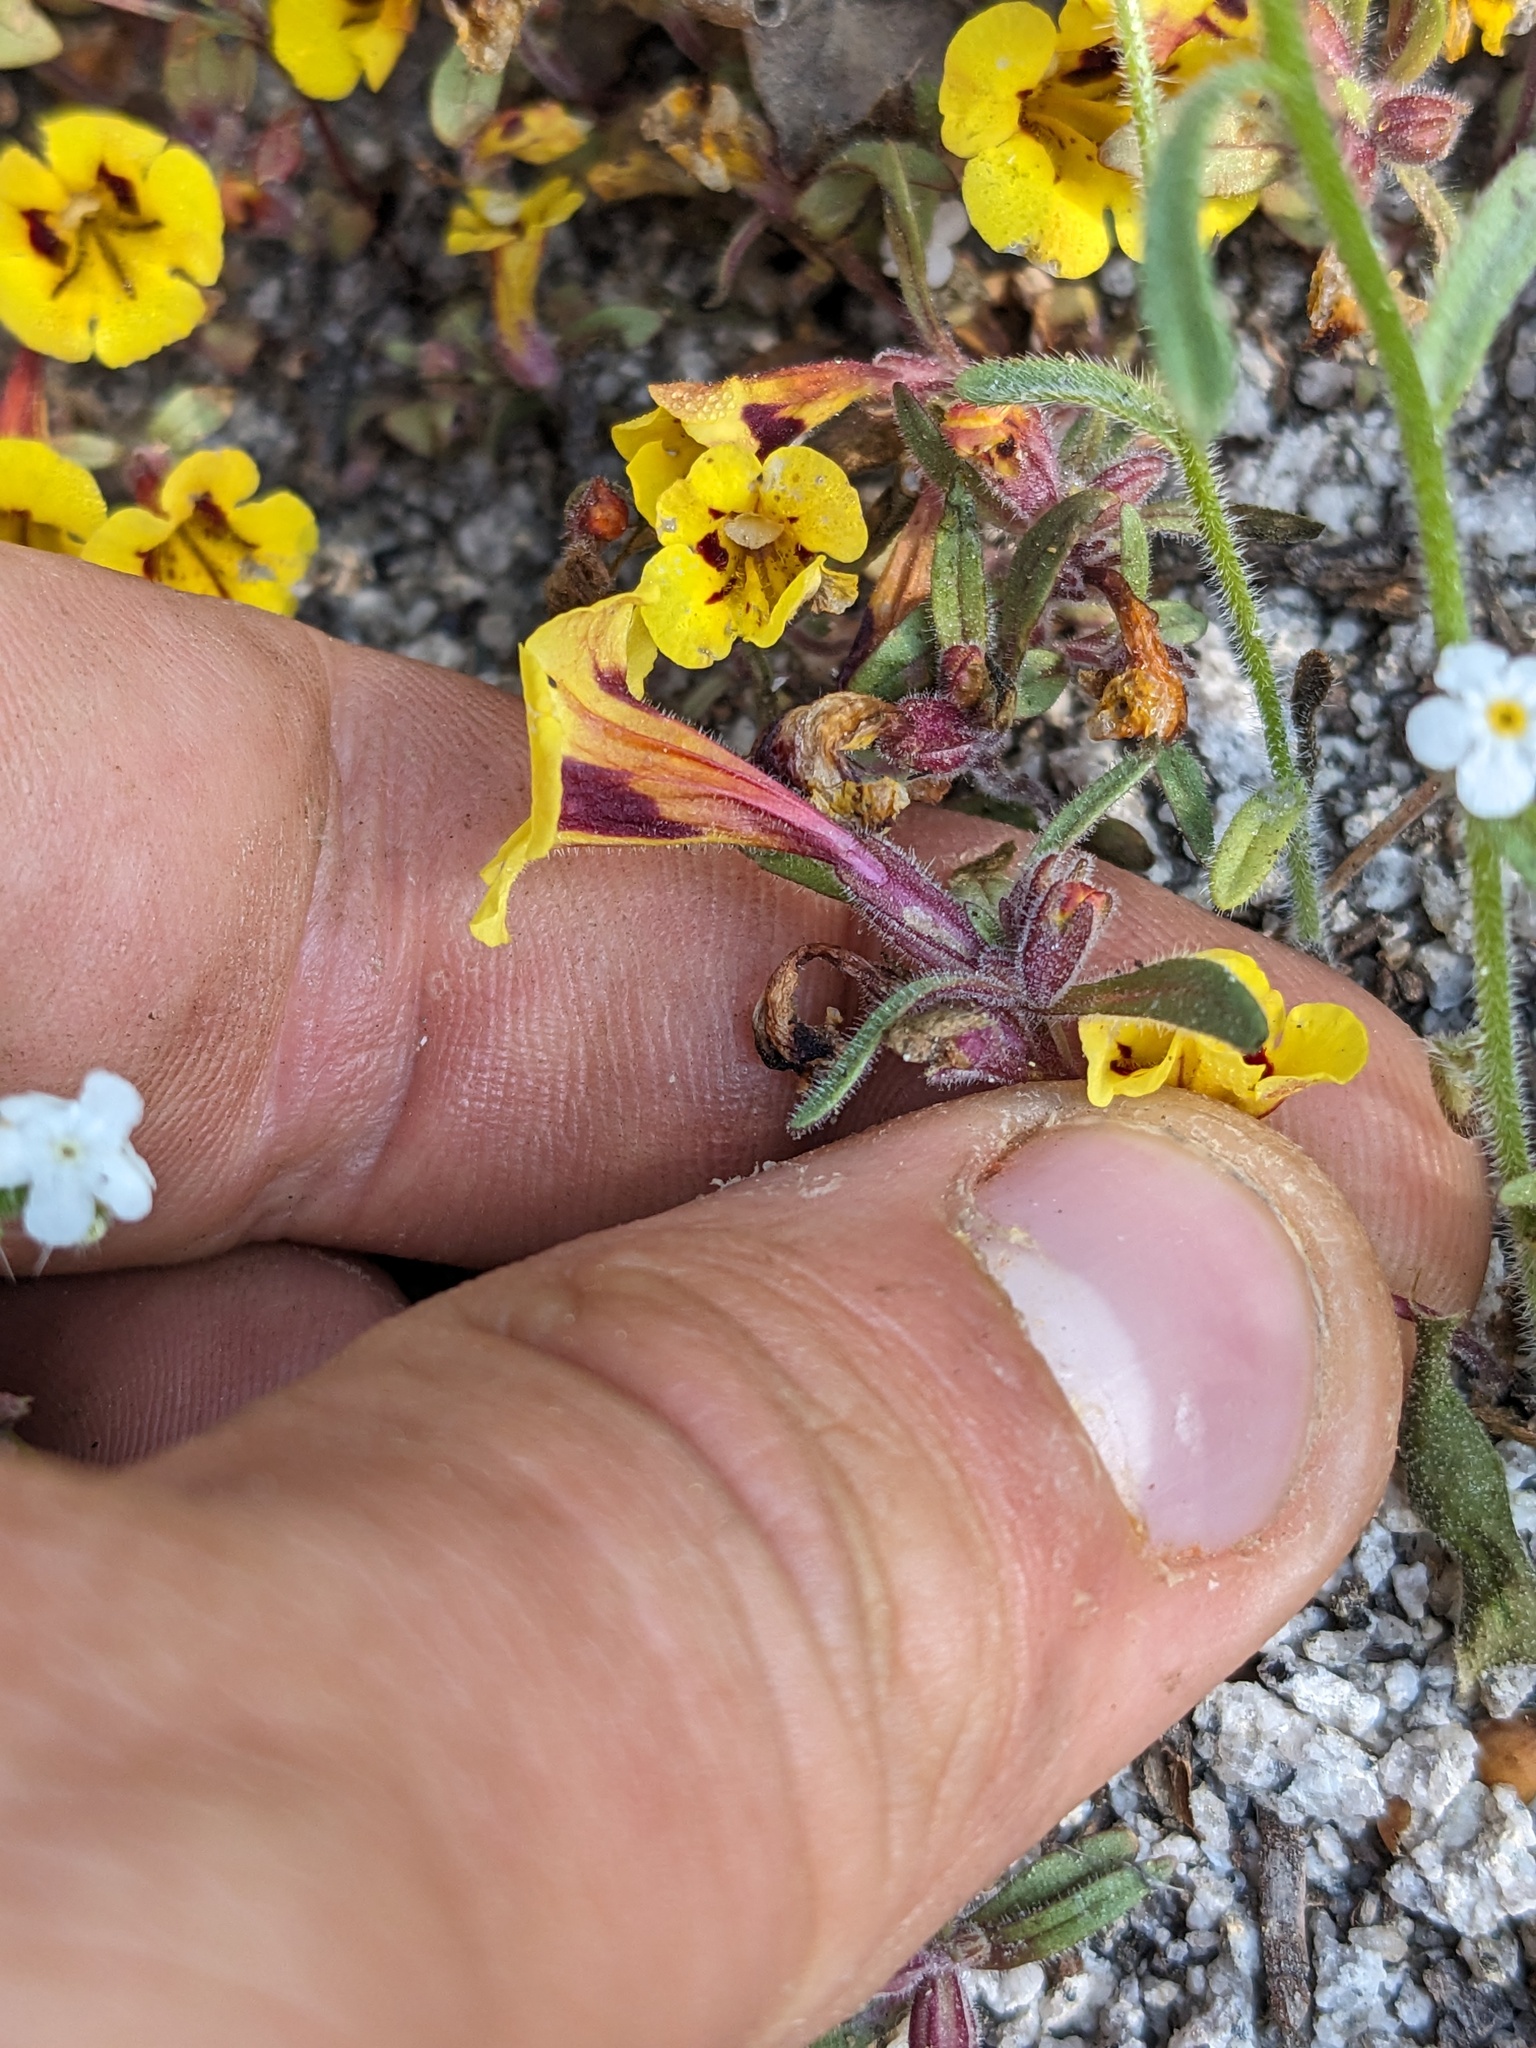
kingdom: Plantae
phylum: Tracheophyta
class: Magnoliopsida
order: Lamiales
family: Phrymaceae
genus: Diplacus
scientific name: Diplacus bicolor
